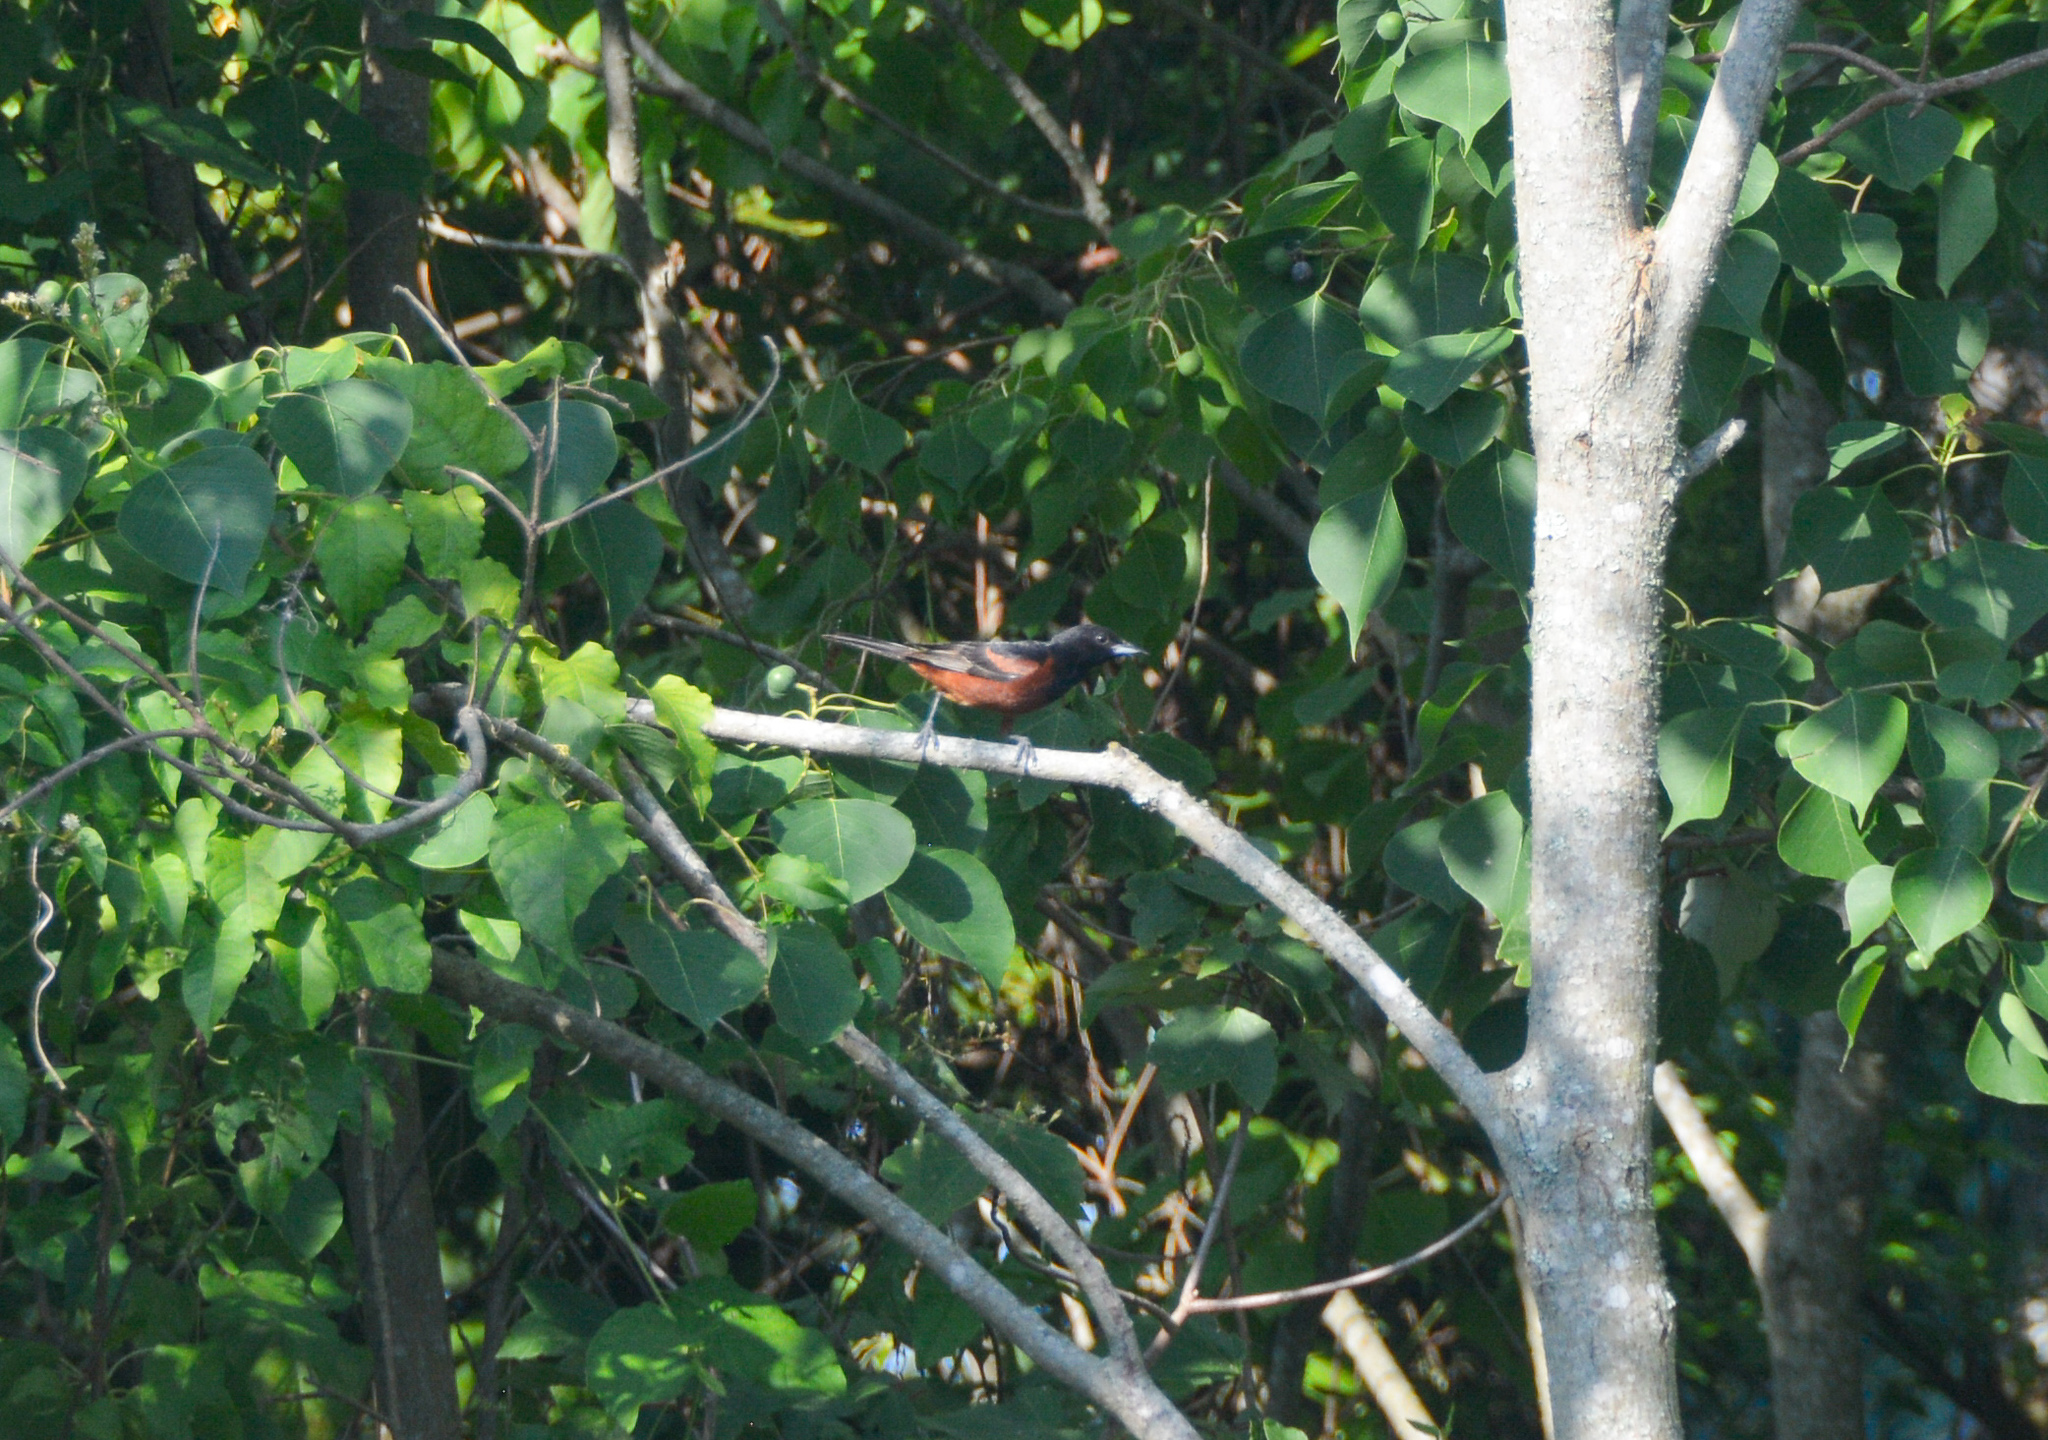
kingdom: Animalia
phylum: Chordata
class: Aves
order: Passeriformes
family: Icteridae
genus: Icterus
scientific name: Icterus spurius
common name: Orchard oriole
